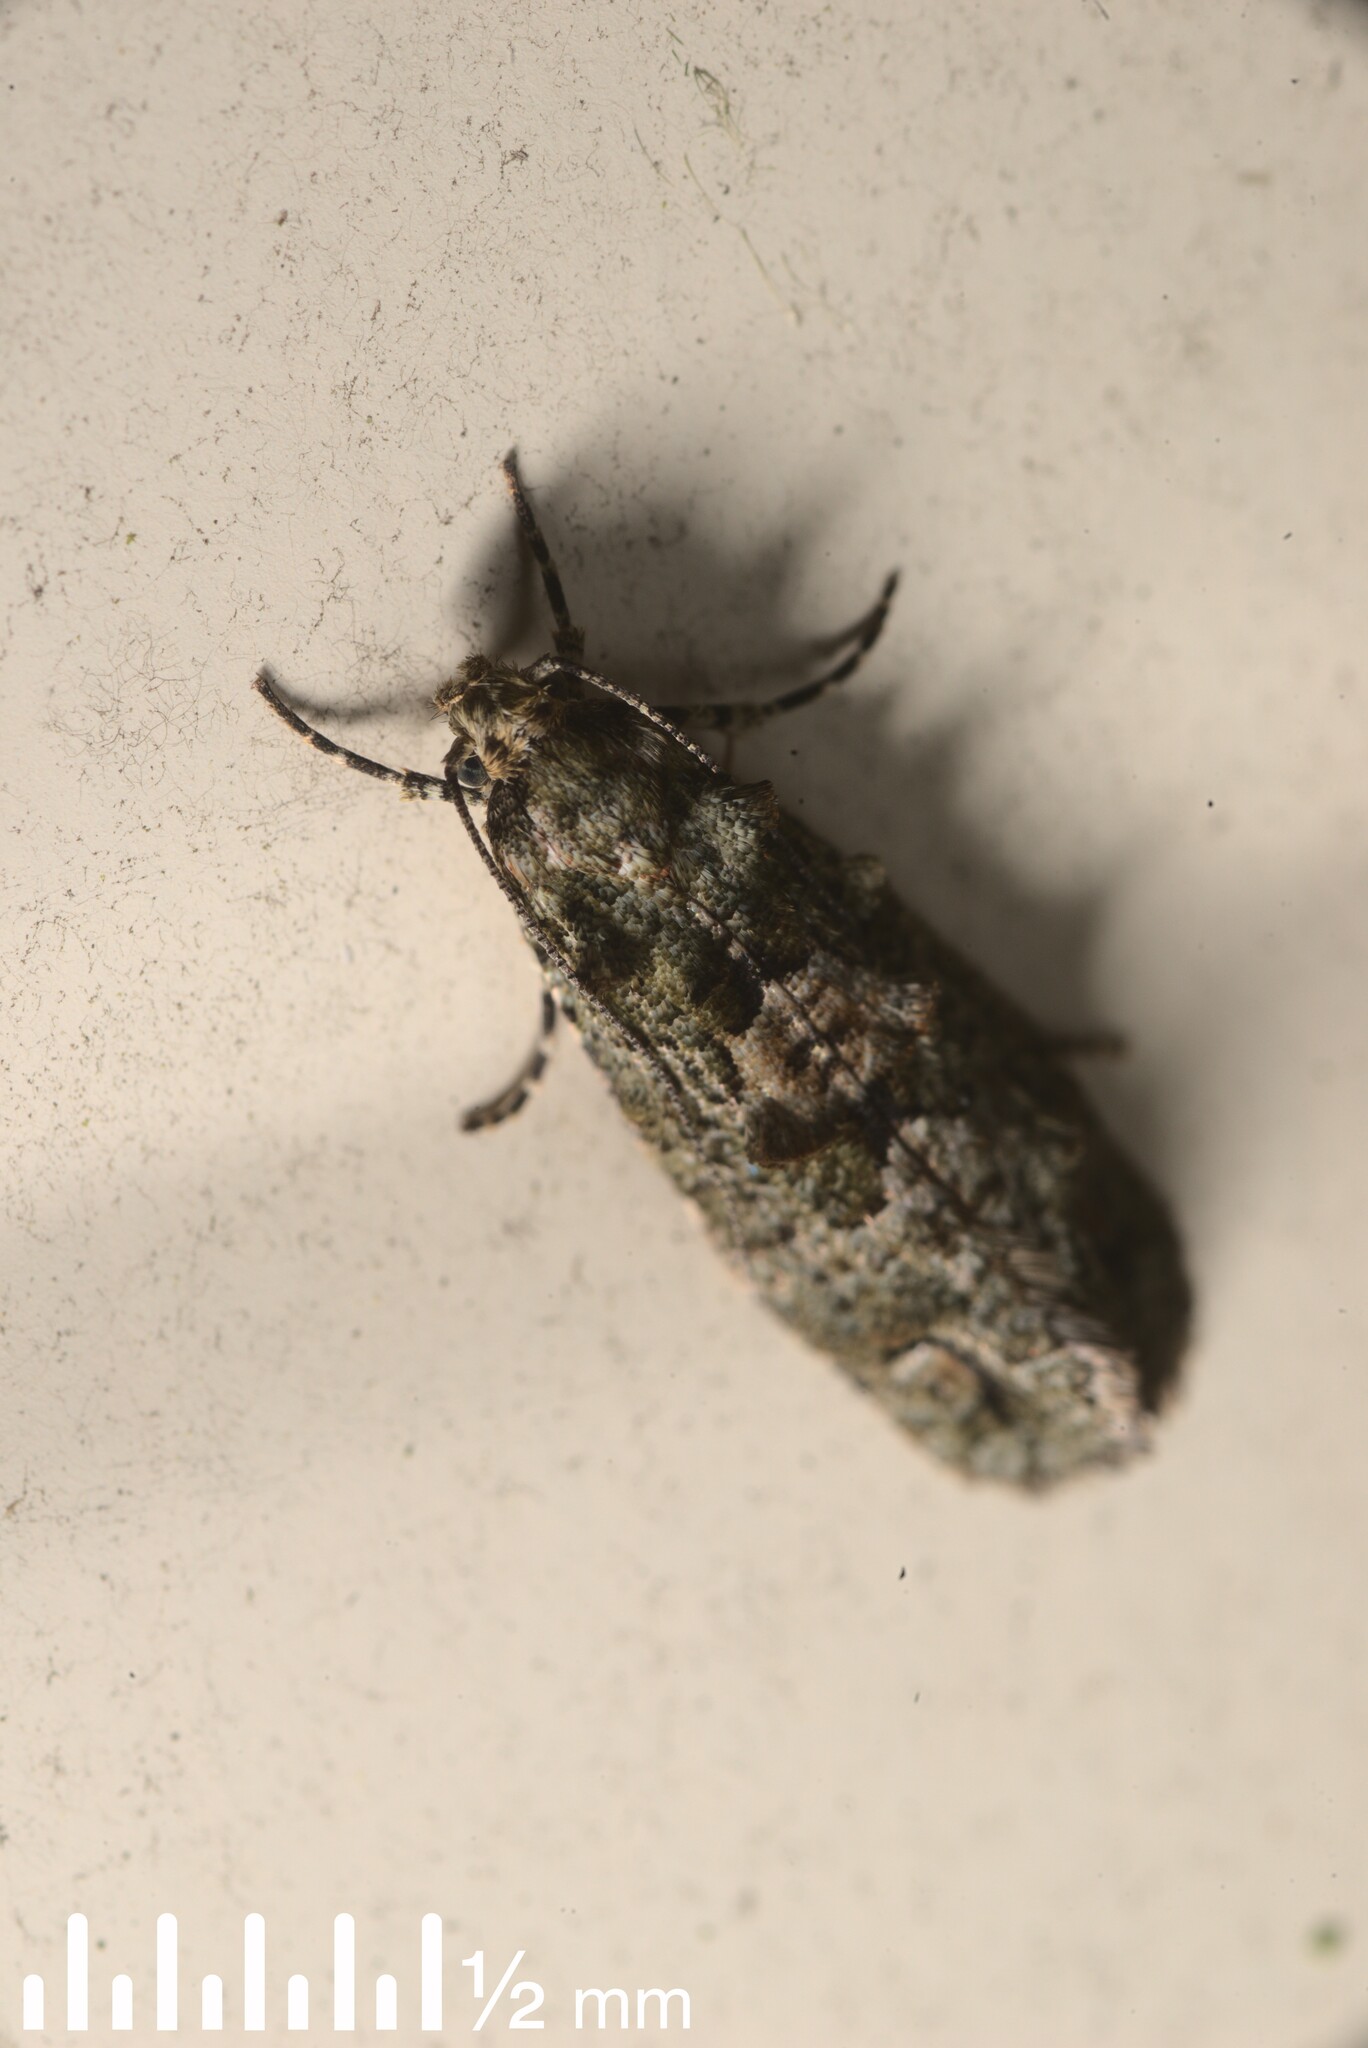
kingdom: Animalia
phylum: Arthropoda
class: Insecta
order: Lepidoptera
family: Tineidae
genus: Lysiphragma
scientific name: Lysiphragma howesii
